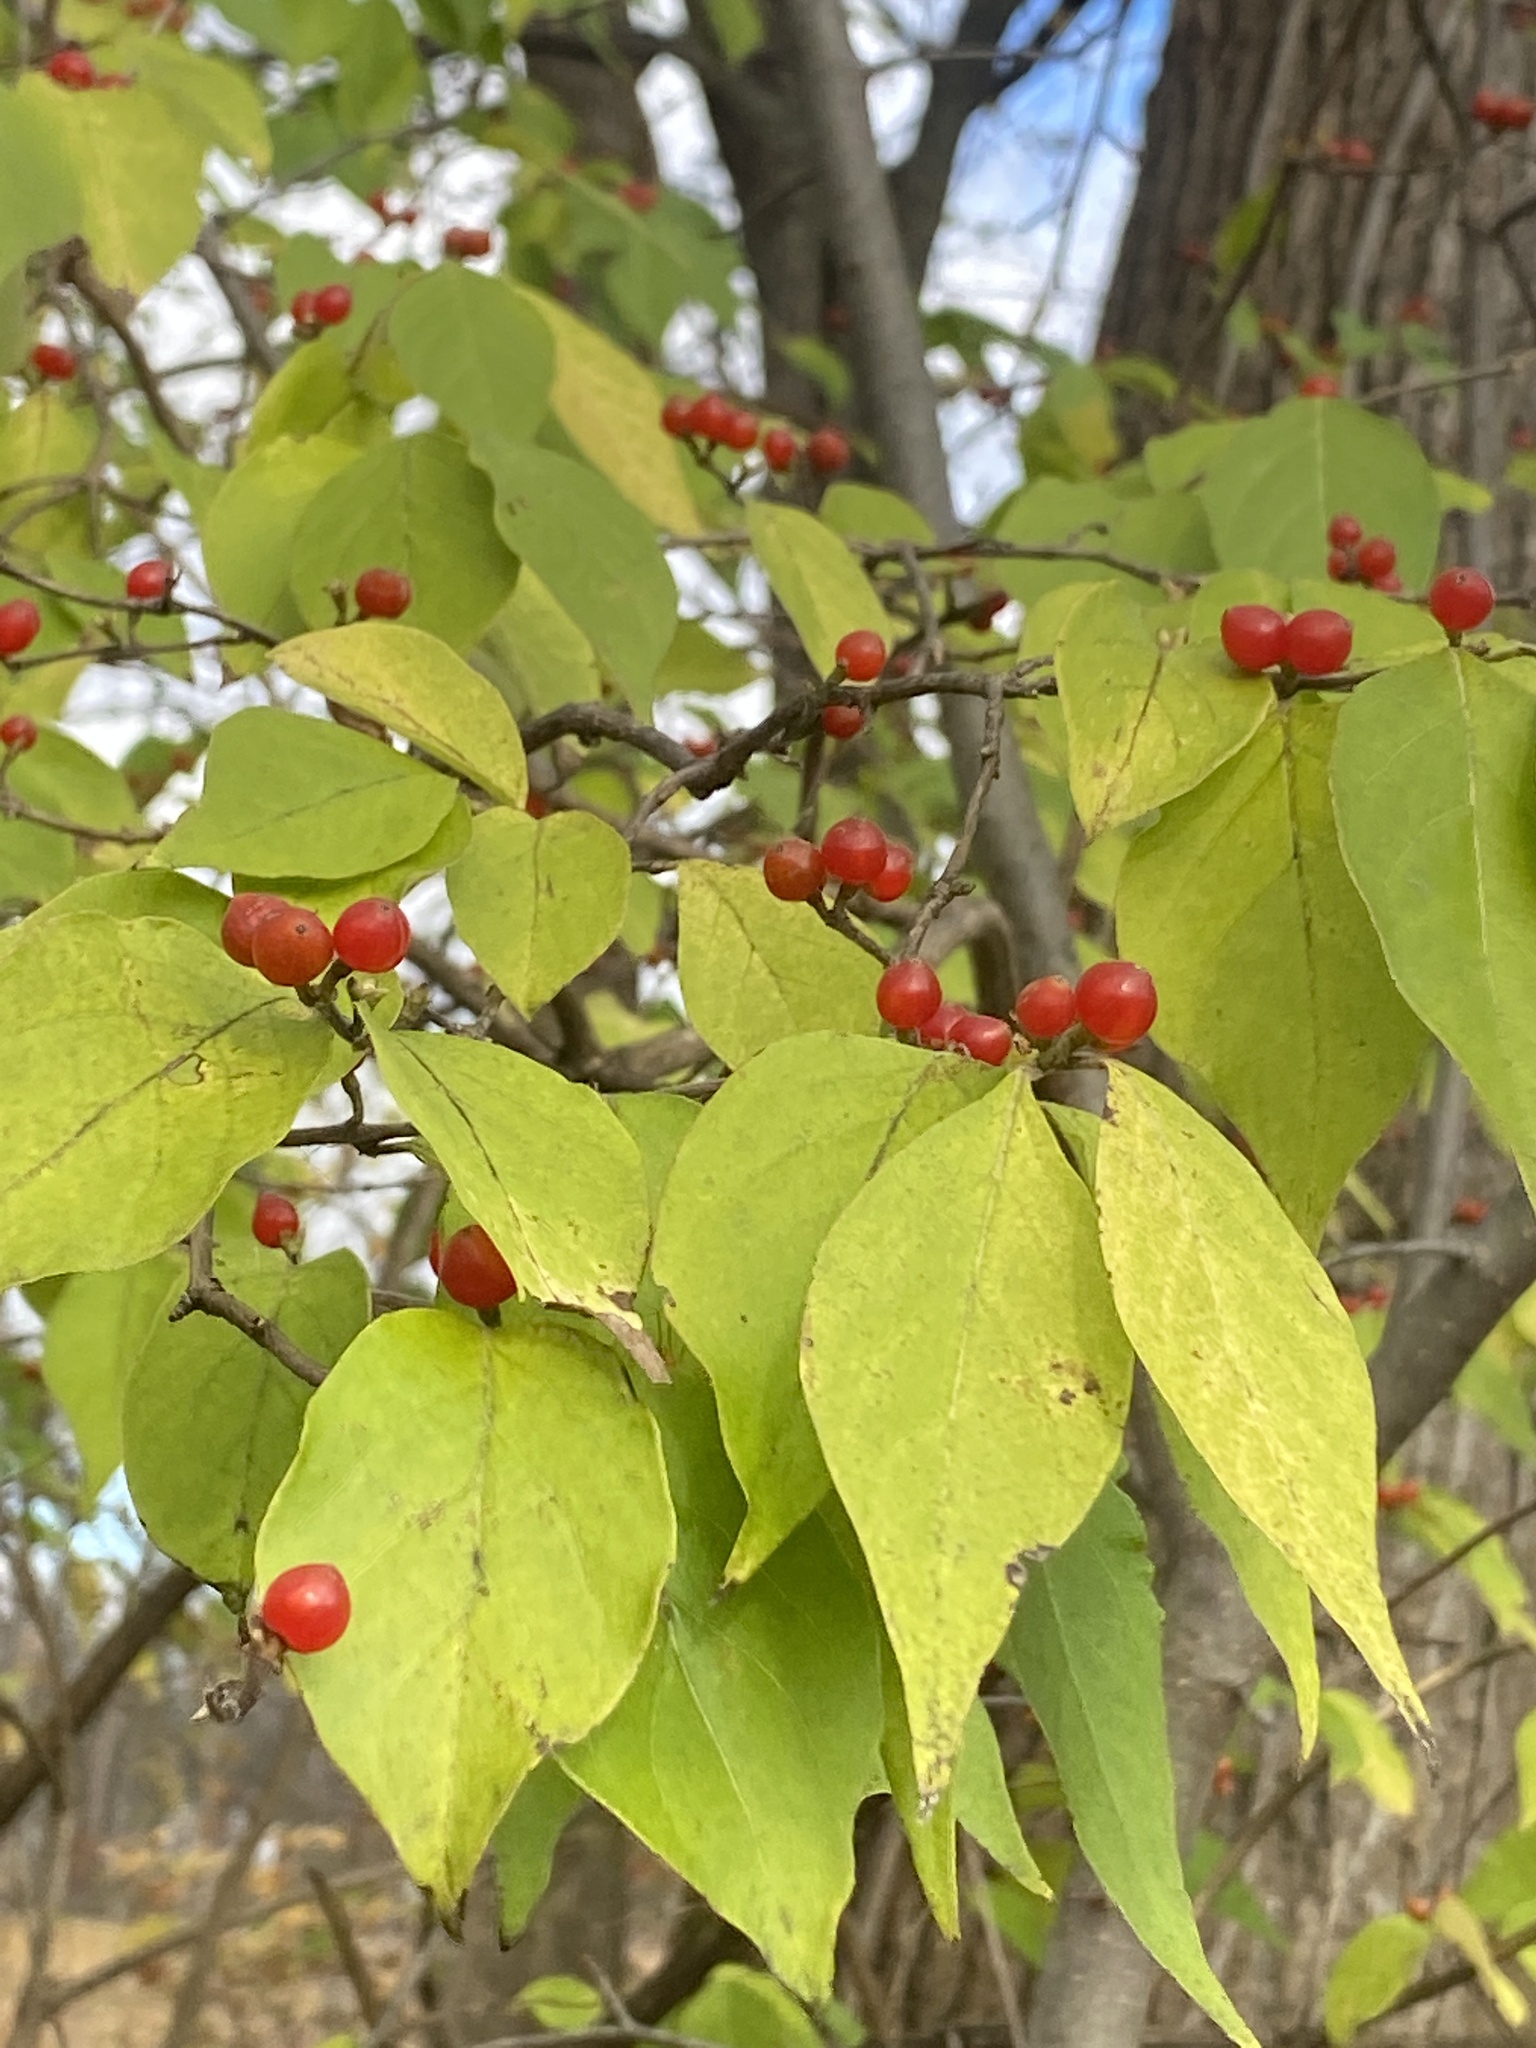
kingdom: Plantae
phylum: Tracheophyta
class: Magnoliopsida
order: Dipsacales
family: Caprifoliaceae
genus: Lonicera
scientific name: Lonicera maackii
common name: Amur honeysuckle
